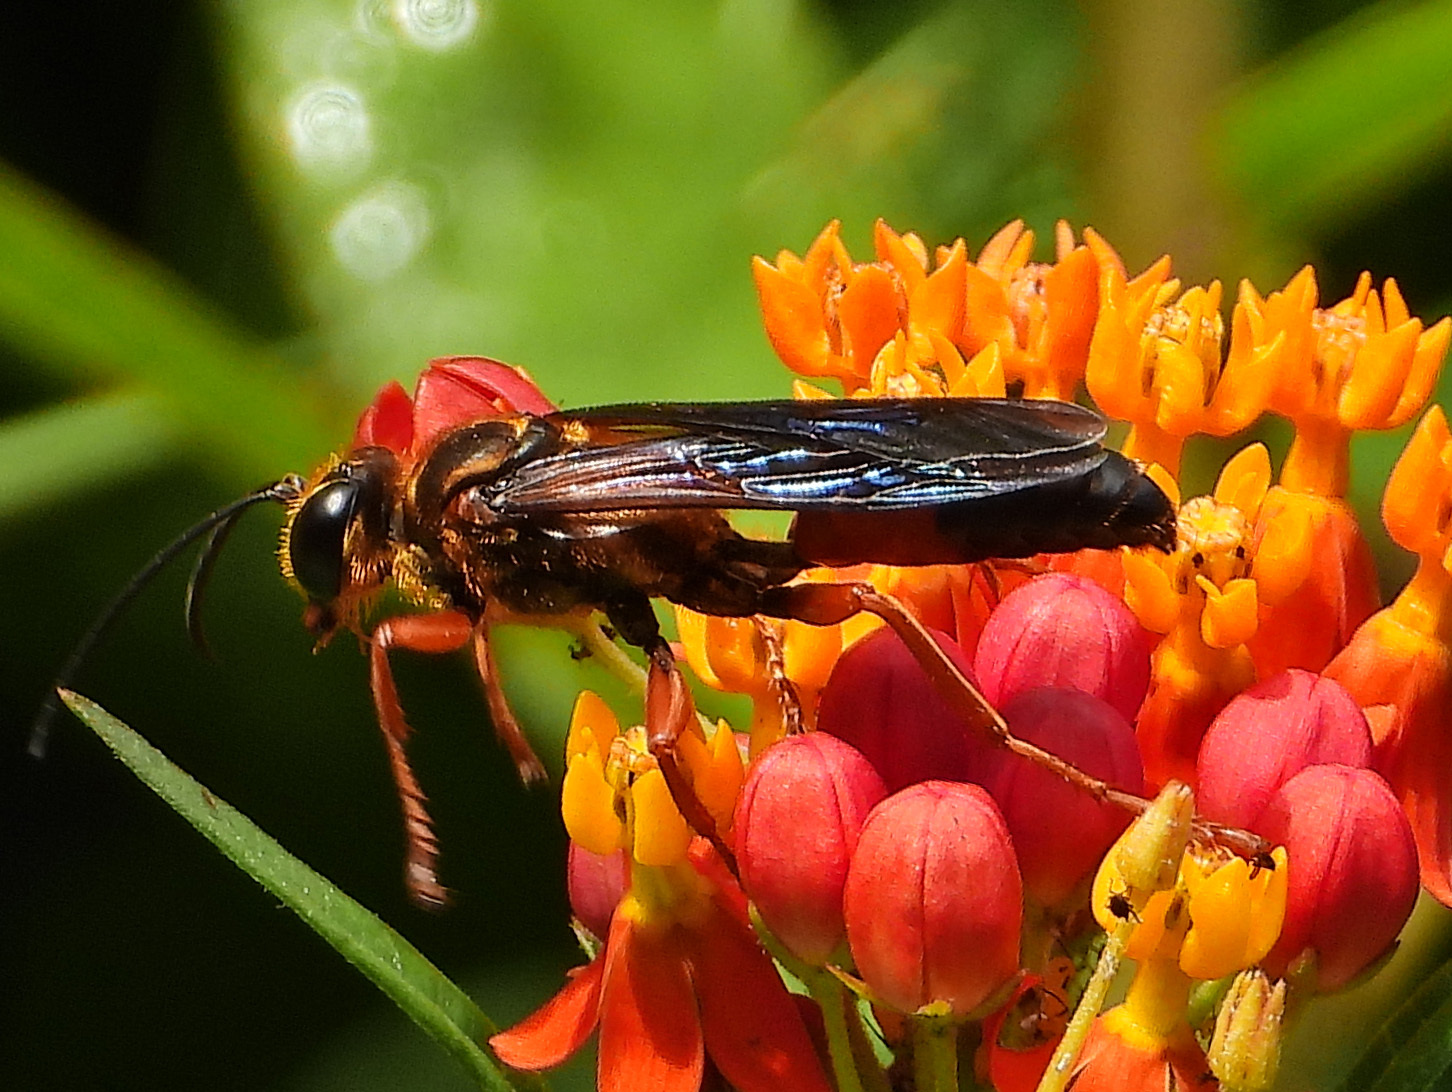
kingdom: Animalia
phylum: Arthropoda
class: Insecta
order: Hymenoptera
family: Sphecidae
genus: Sphex
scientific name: Sphex ichneumoneus
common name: Great golden digger wasp
